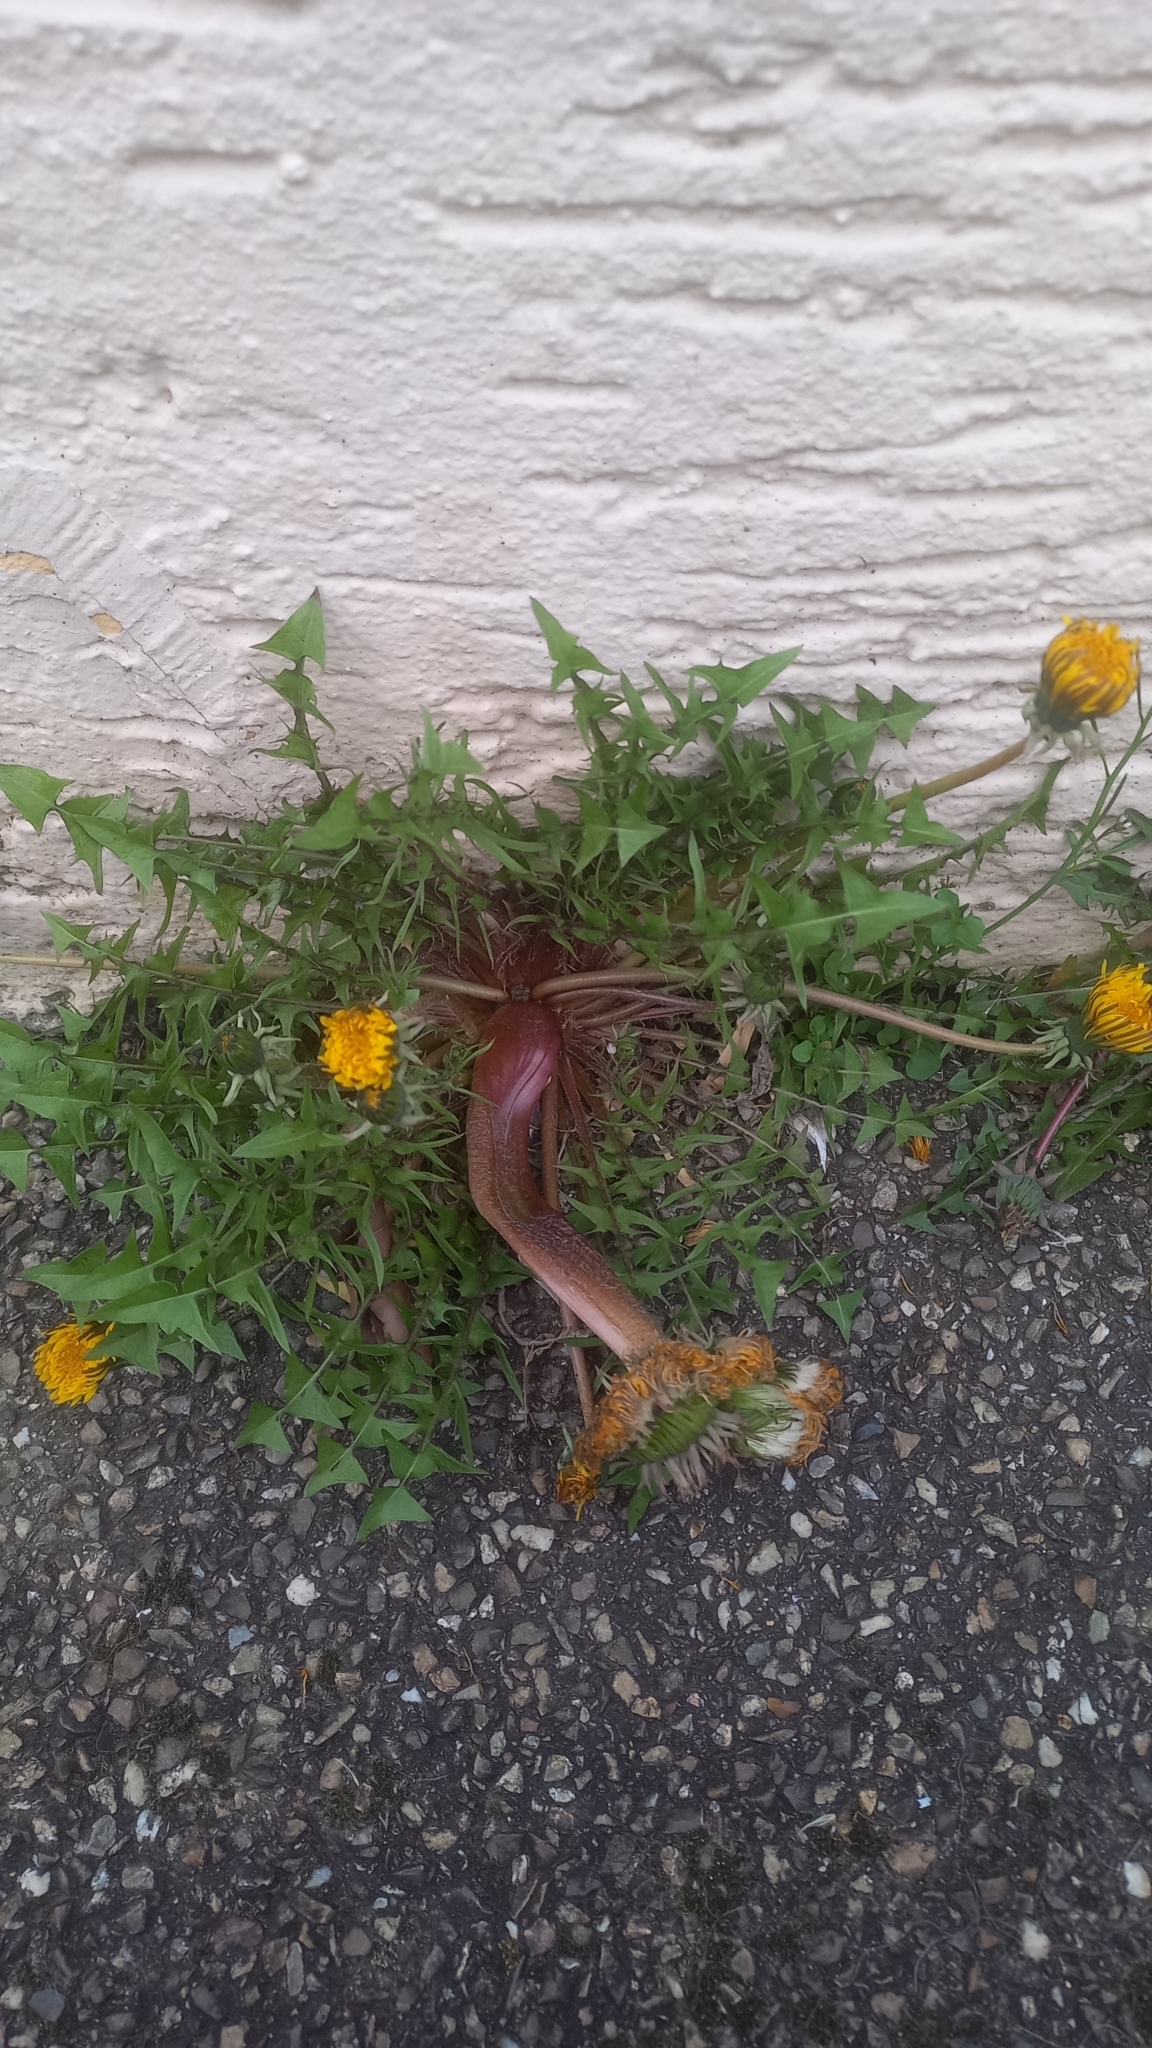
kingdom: Plantae
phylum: Tracheophyta
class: Magnoliopsida
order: Asterales
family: Asteraceae
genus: Taraxacum
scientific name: Taraxacum
